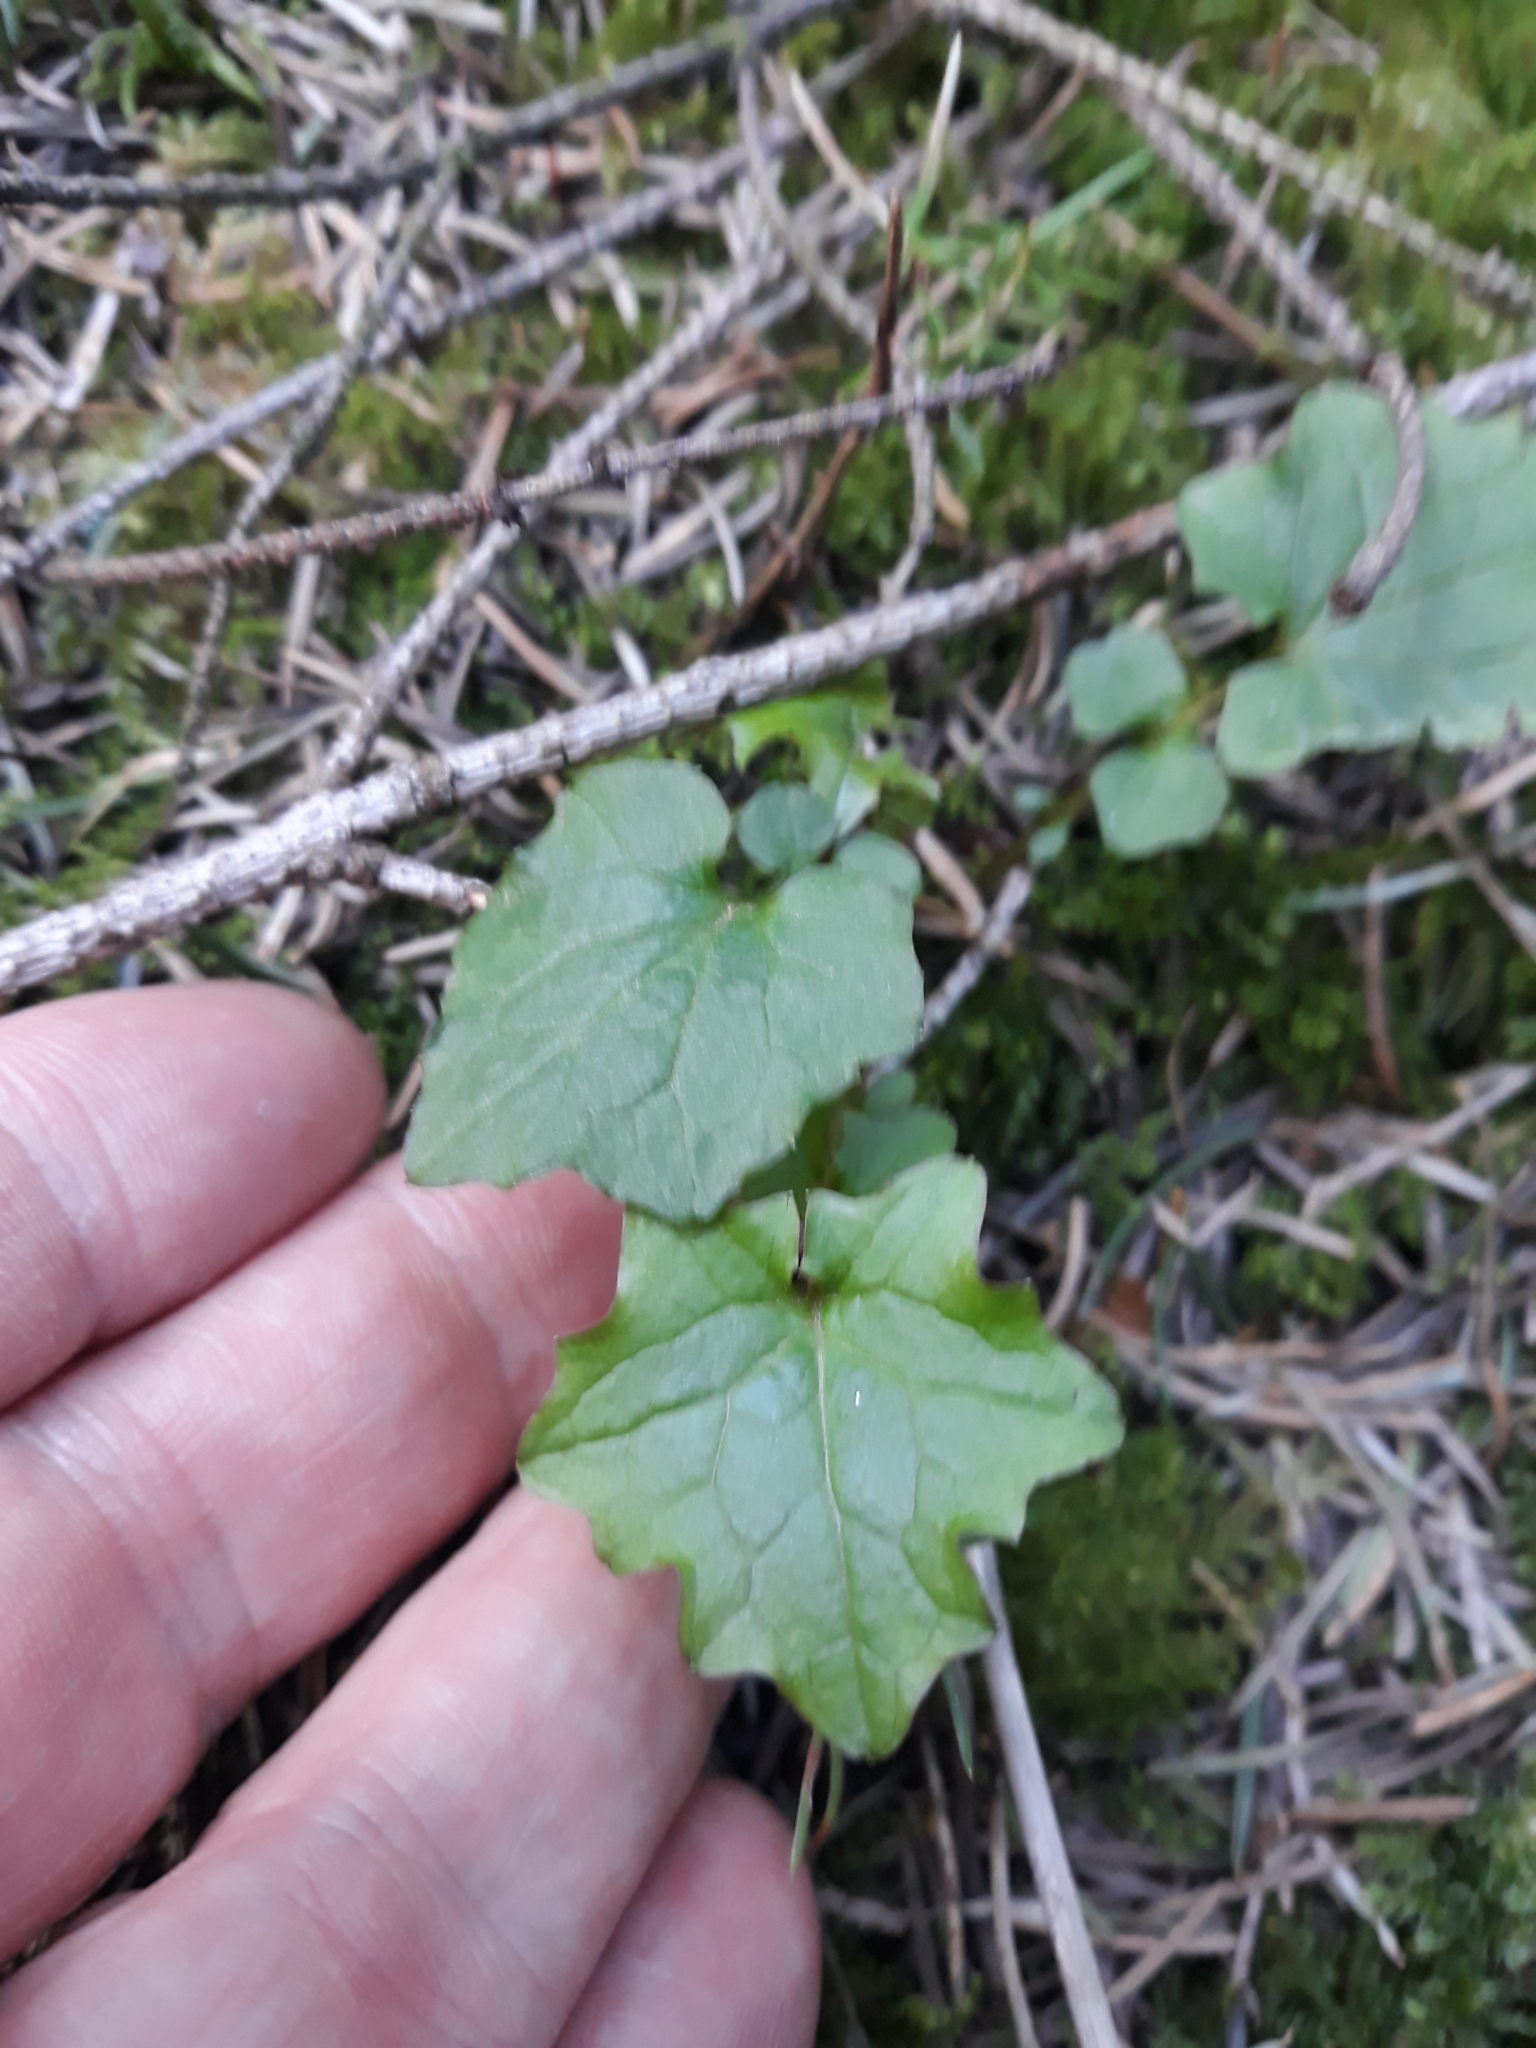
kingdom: Plantae
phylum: Tracheophyta
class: Magnoliopsida
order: Asterales
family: Asteraceae
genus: Mycelis
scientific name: Mycelis muralis
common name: Wall lettuce
